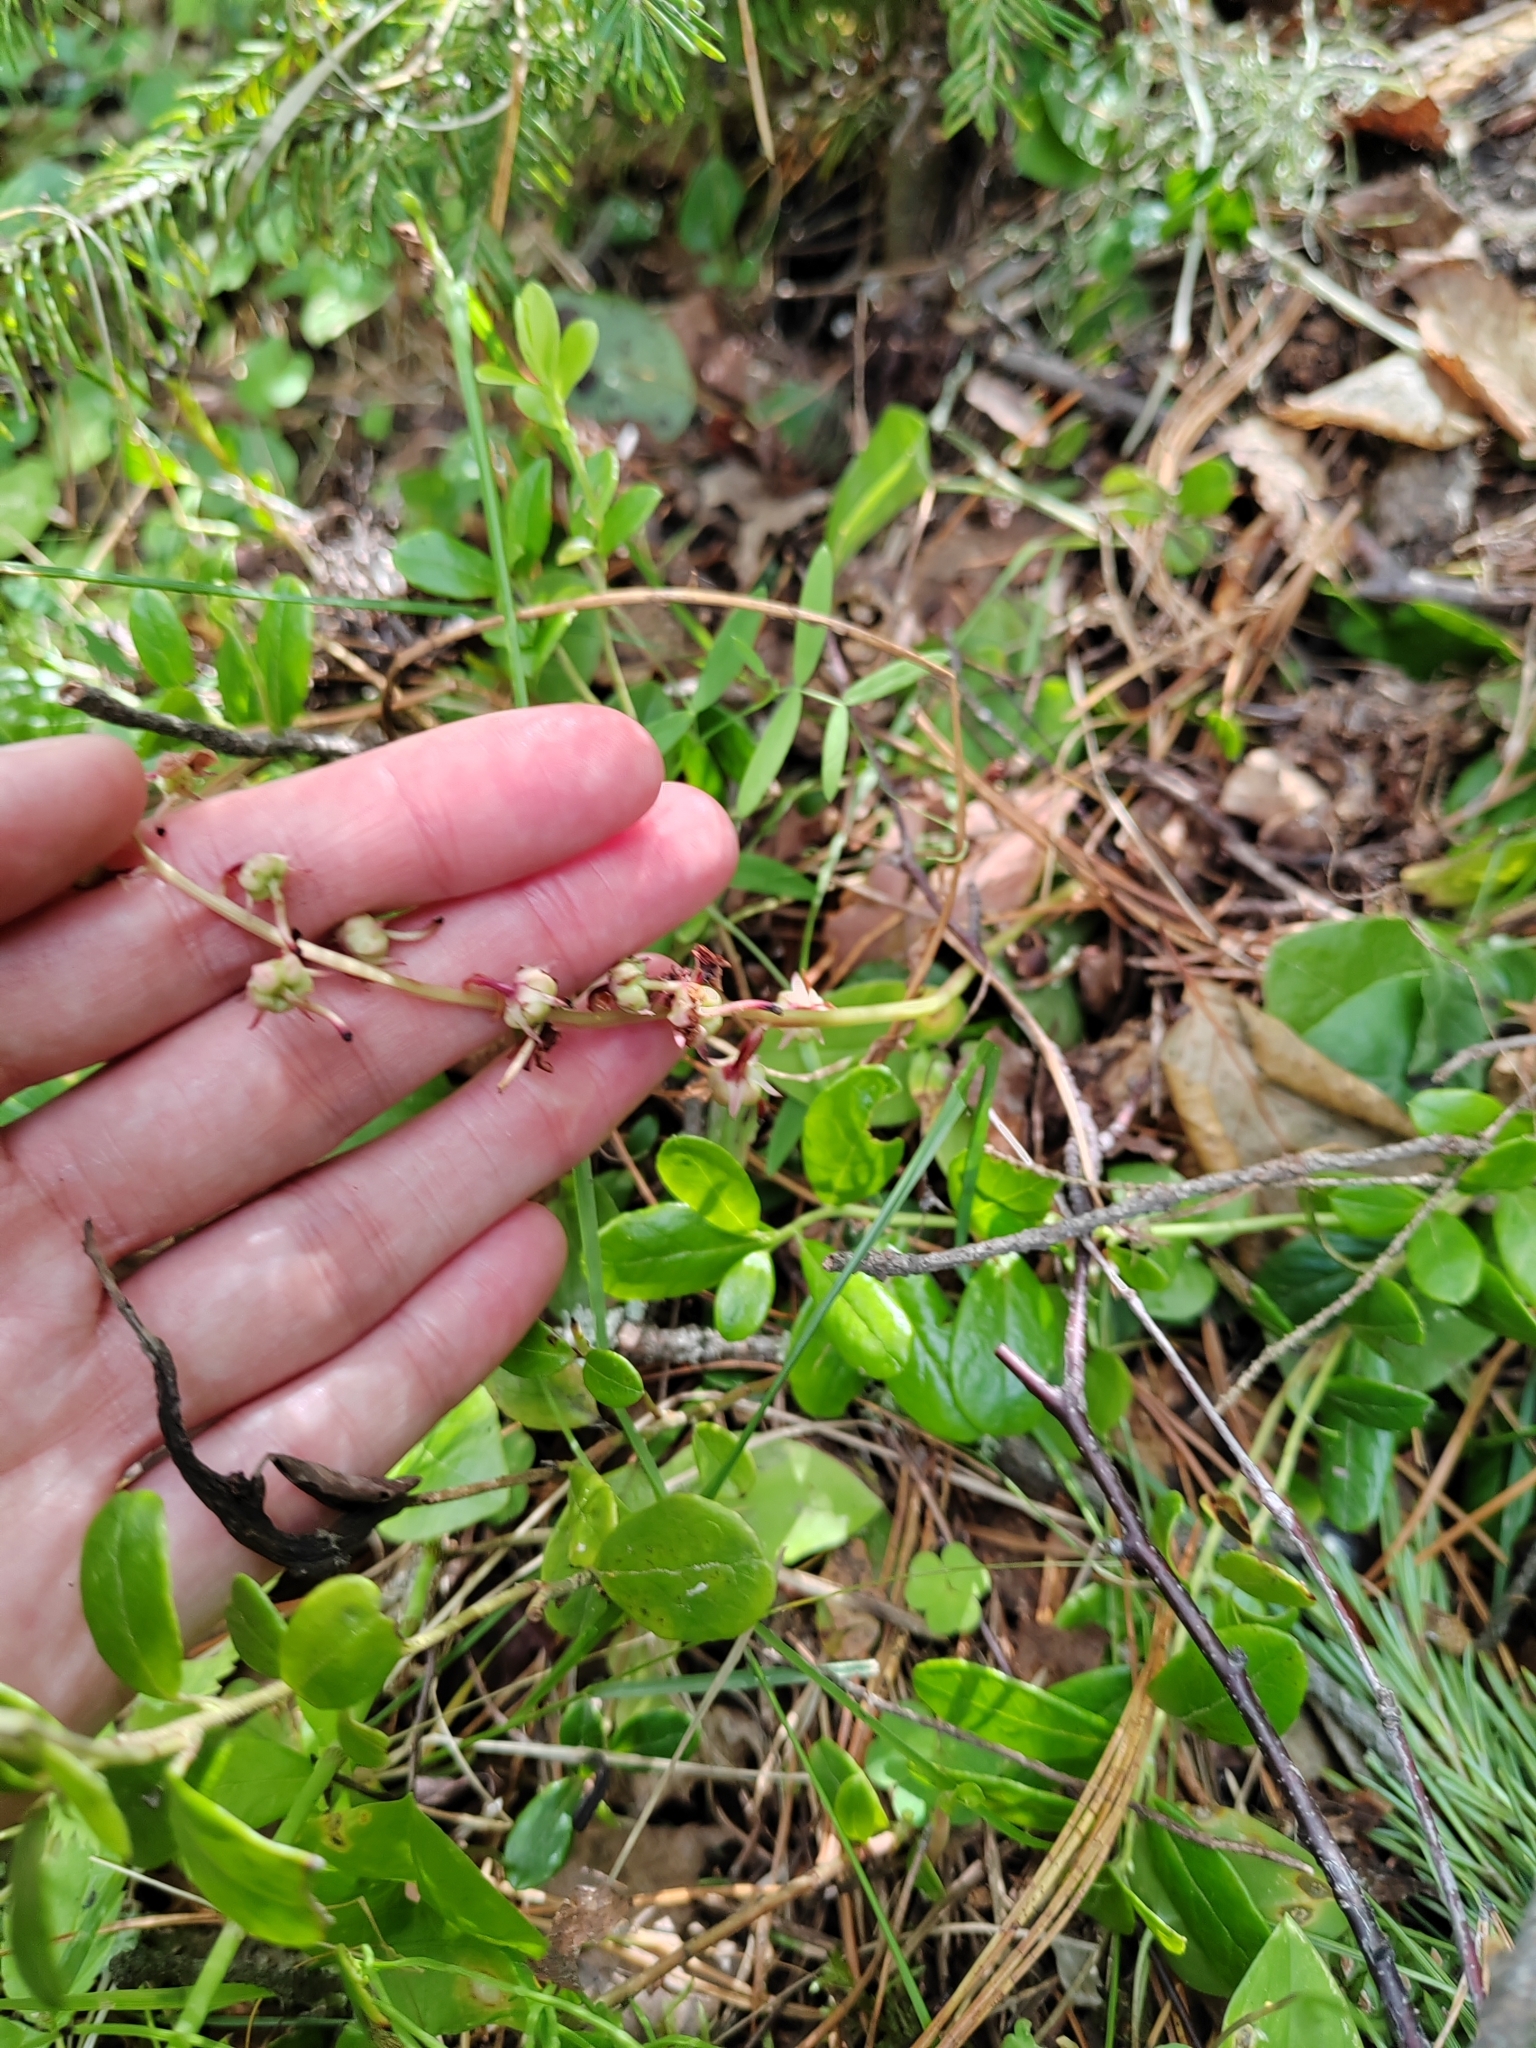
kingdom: Plantae
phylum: Tracheophyta
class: Magnoliopsida
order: Ericales
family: Ericaceae
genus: Pyrola
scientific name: Pyrola rotundifolia
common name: Round-leaved wintergreen
